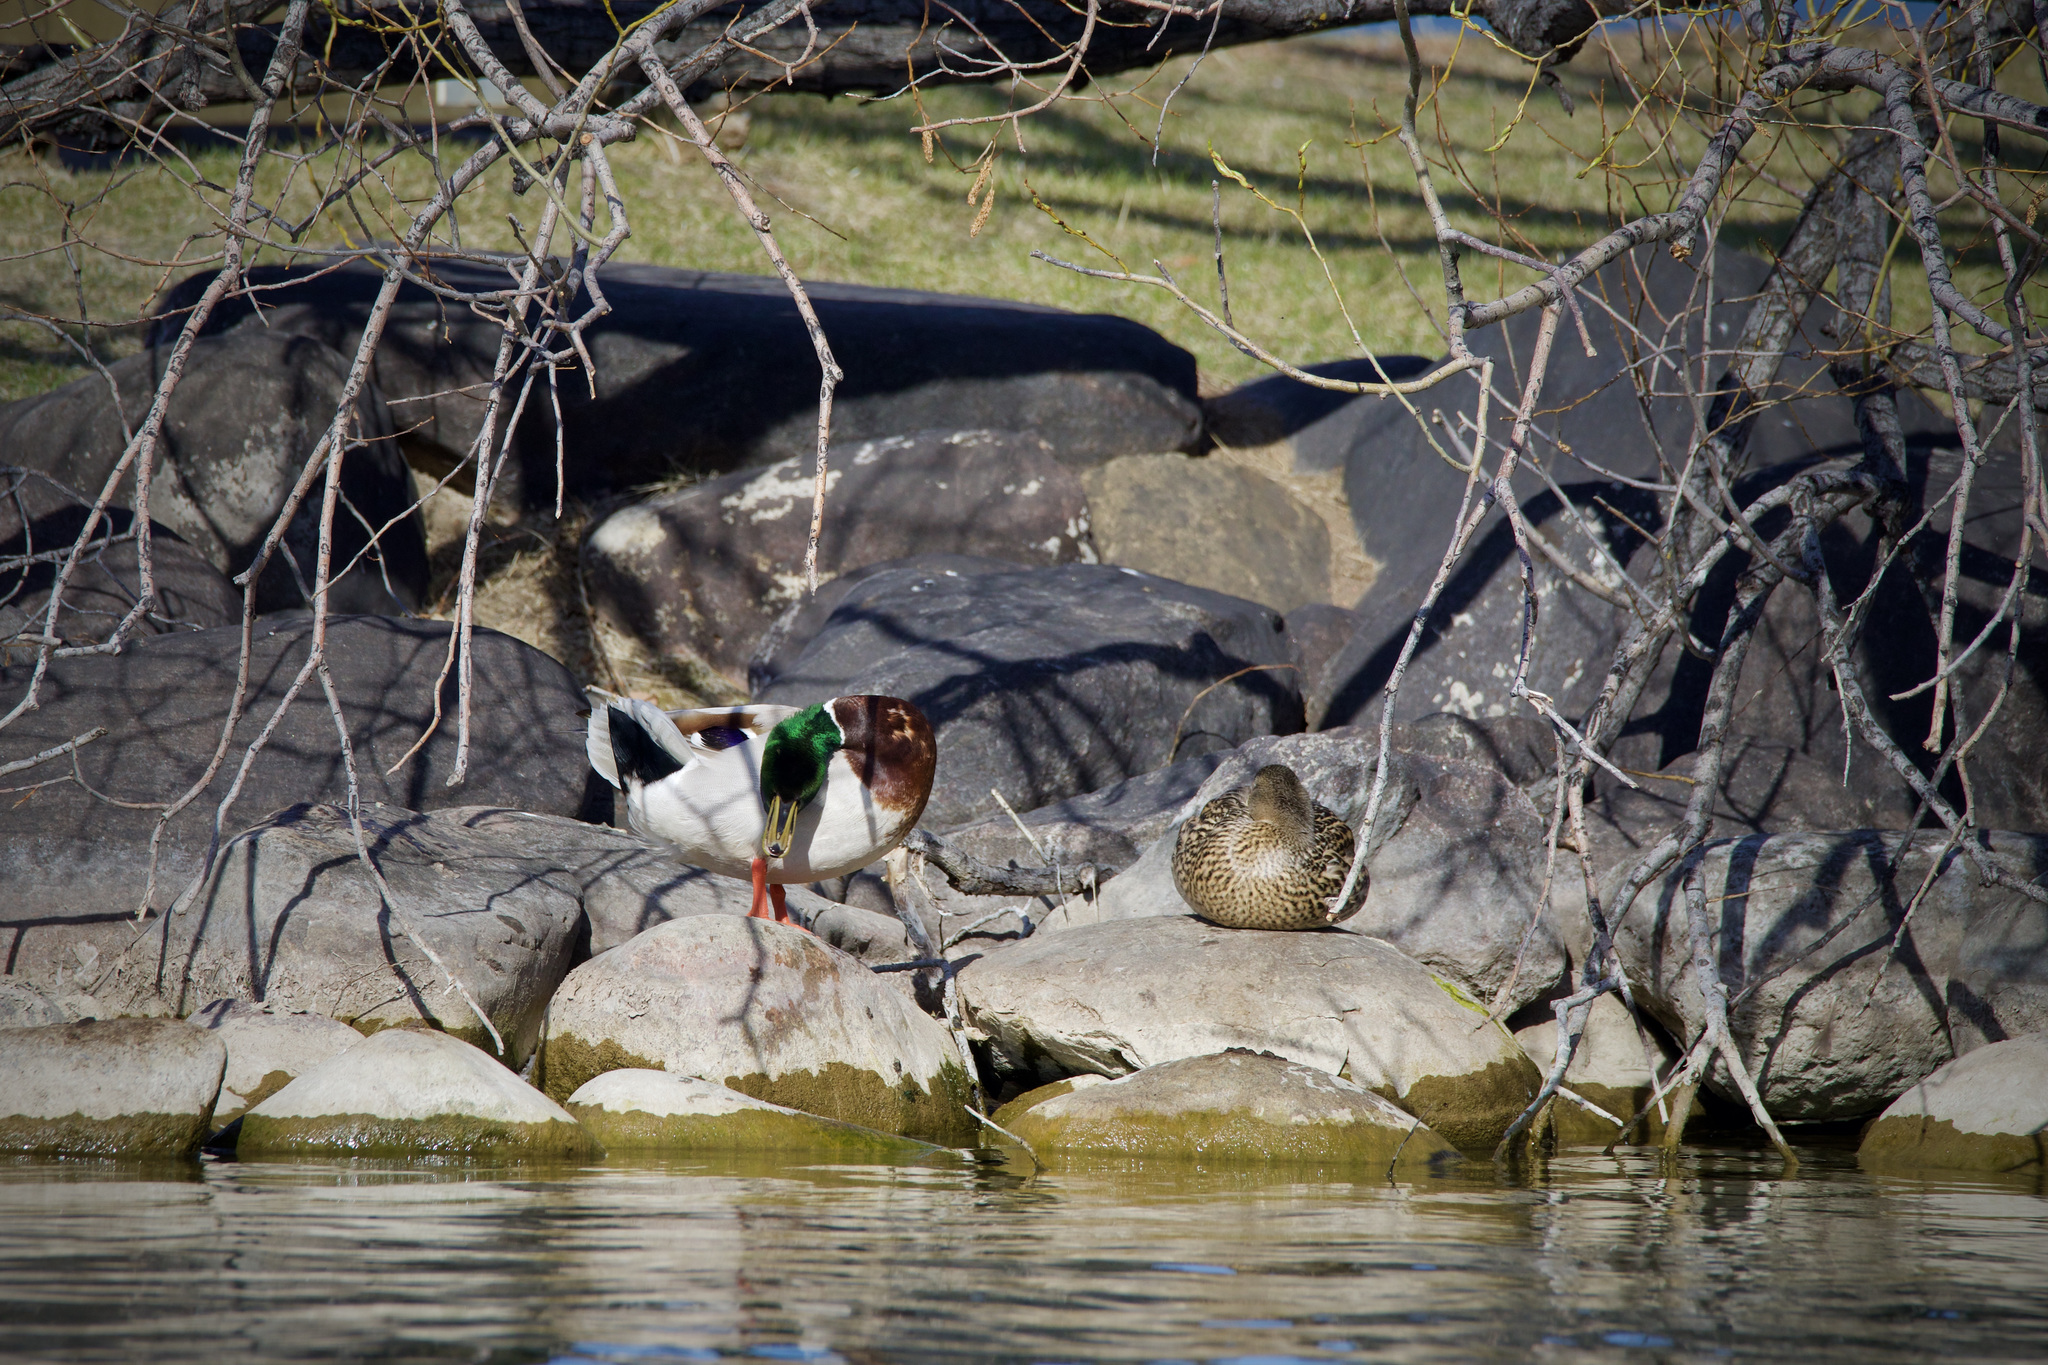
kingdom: Animalia
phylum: Chordata
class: Aves
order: Anseriformes
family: Anatidae
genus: Anas
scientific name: Anas platyrhynchos
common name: Mallard
